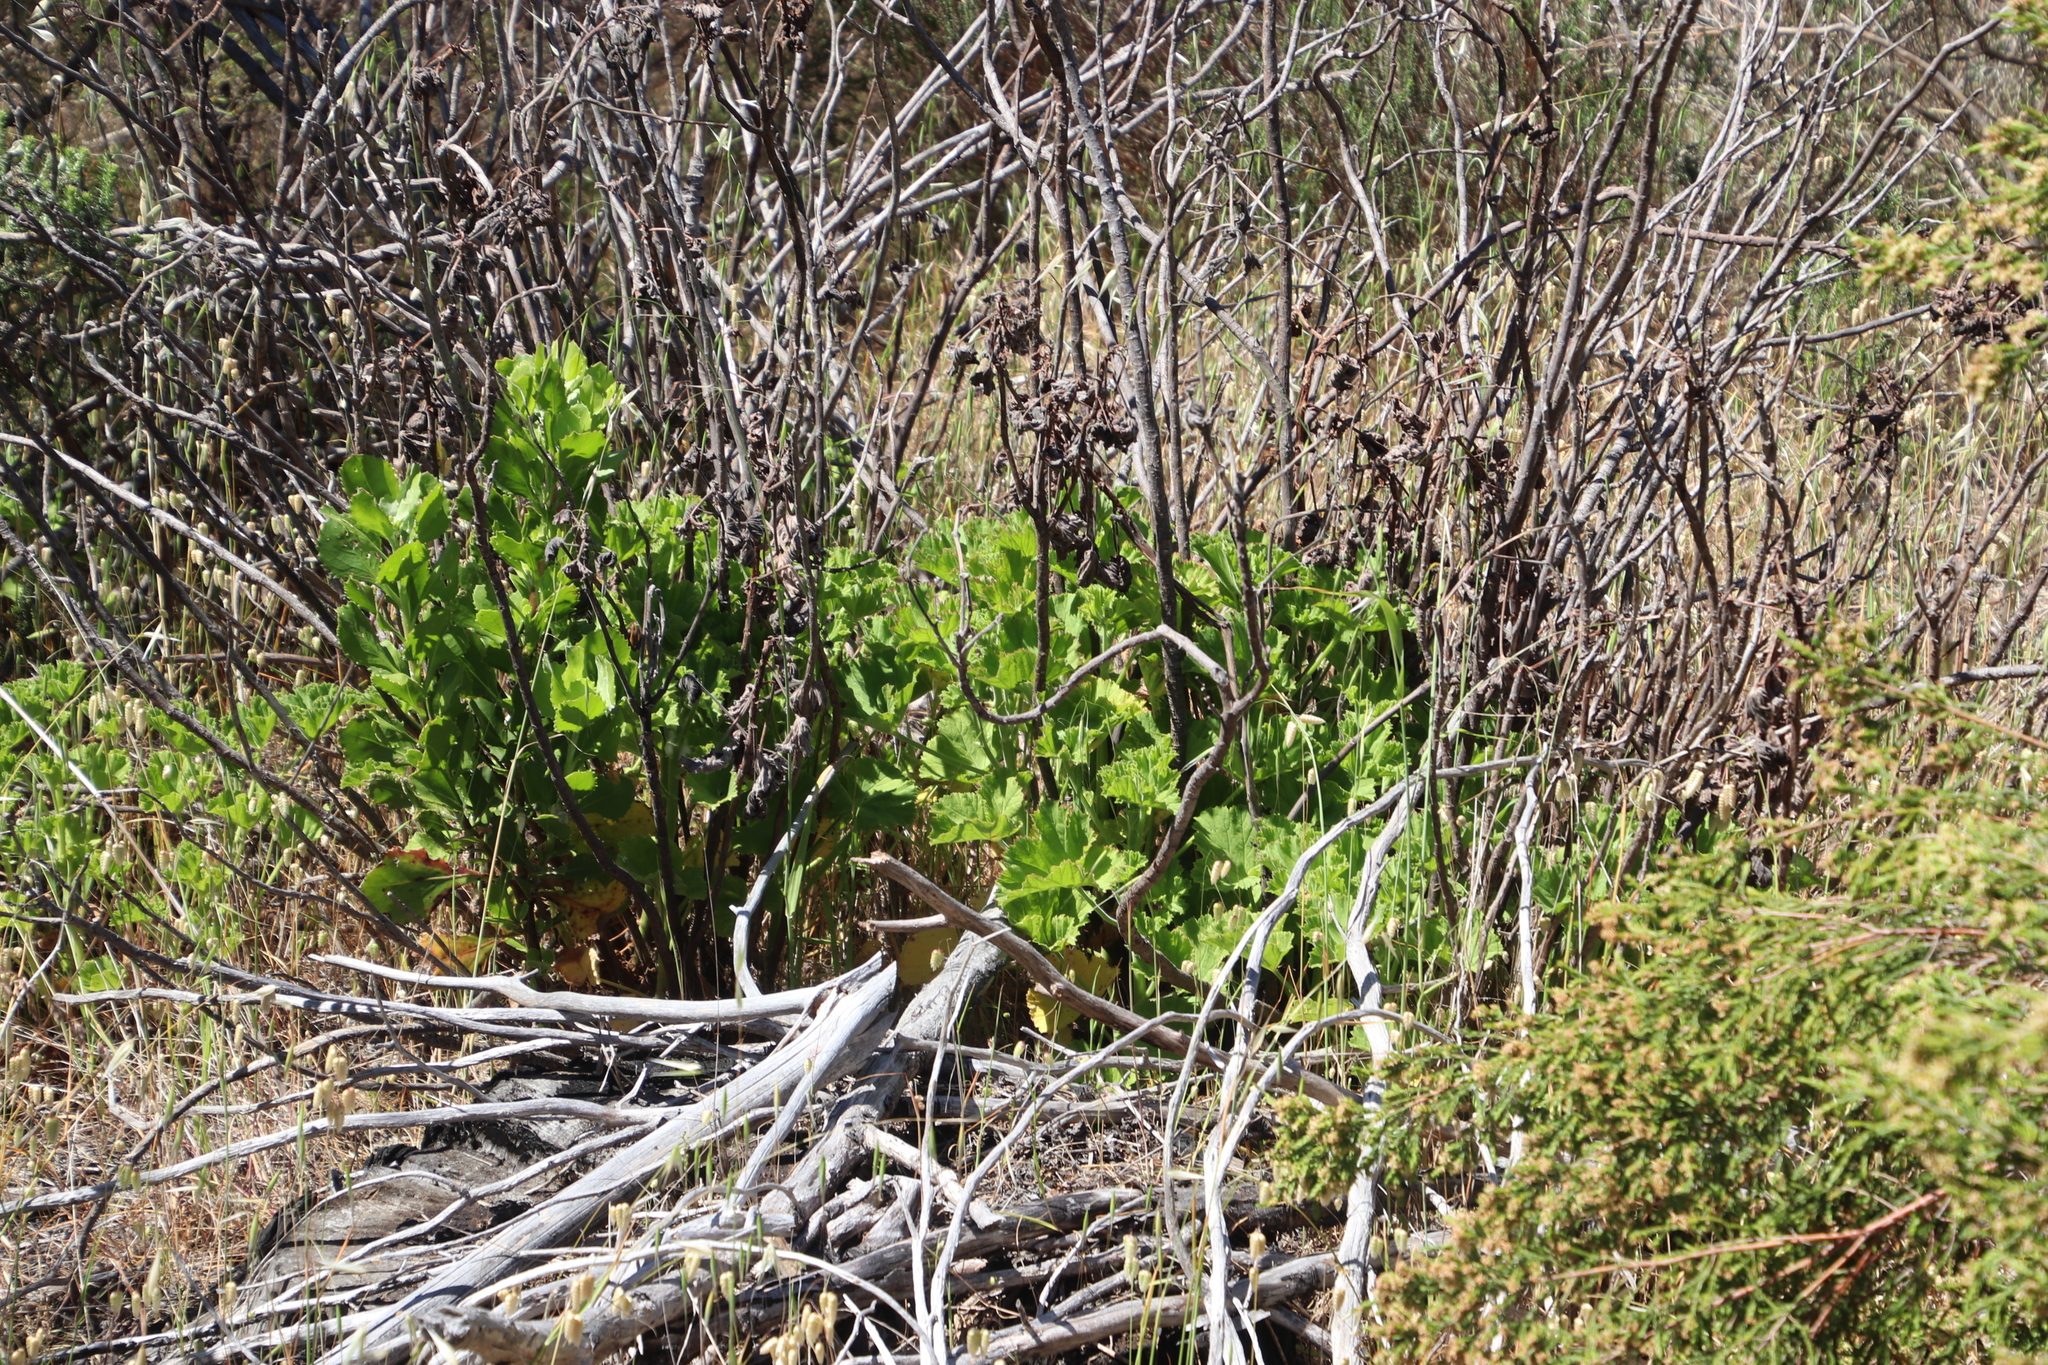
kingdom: Plantae
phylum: Tracheophyta
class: Magnoliopsida
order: Geraniales
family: Geraniaceae
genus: Pelargonium
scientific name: Pelargonium cucullatum
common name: Tree pelargonium
